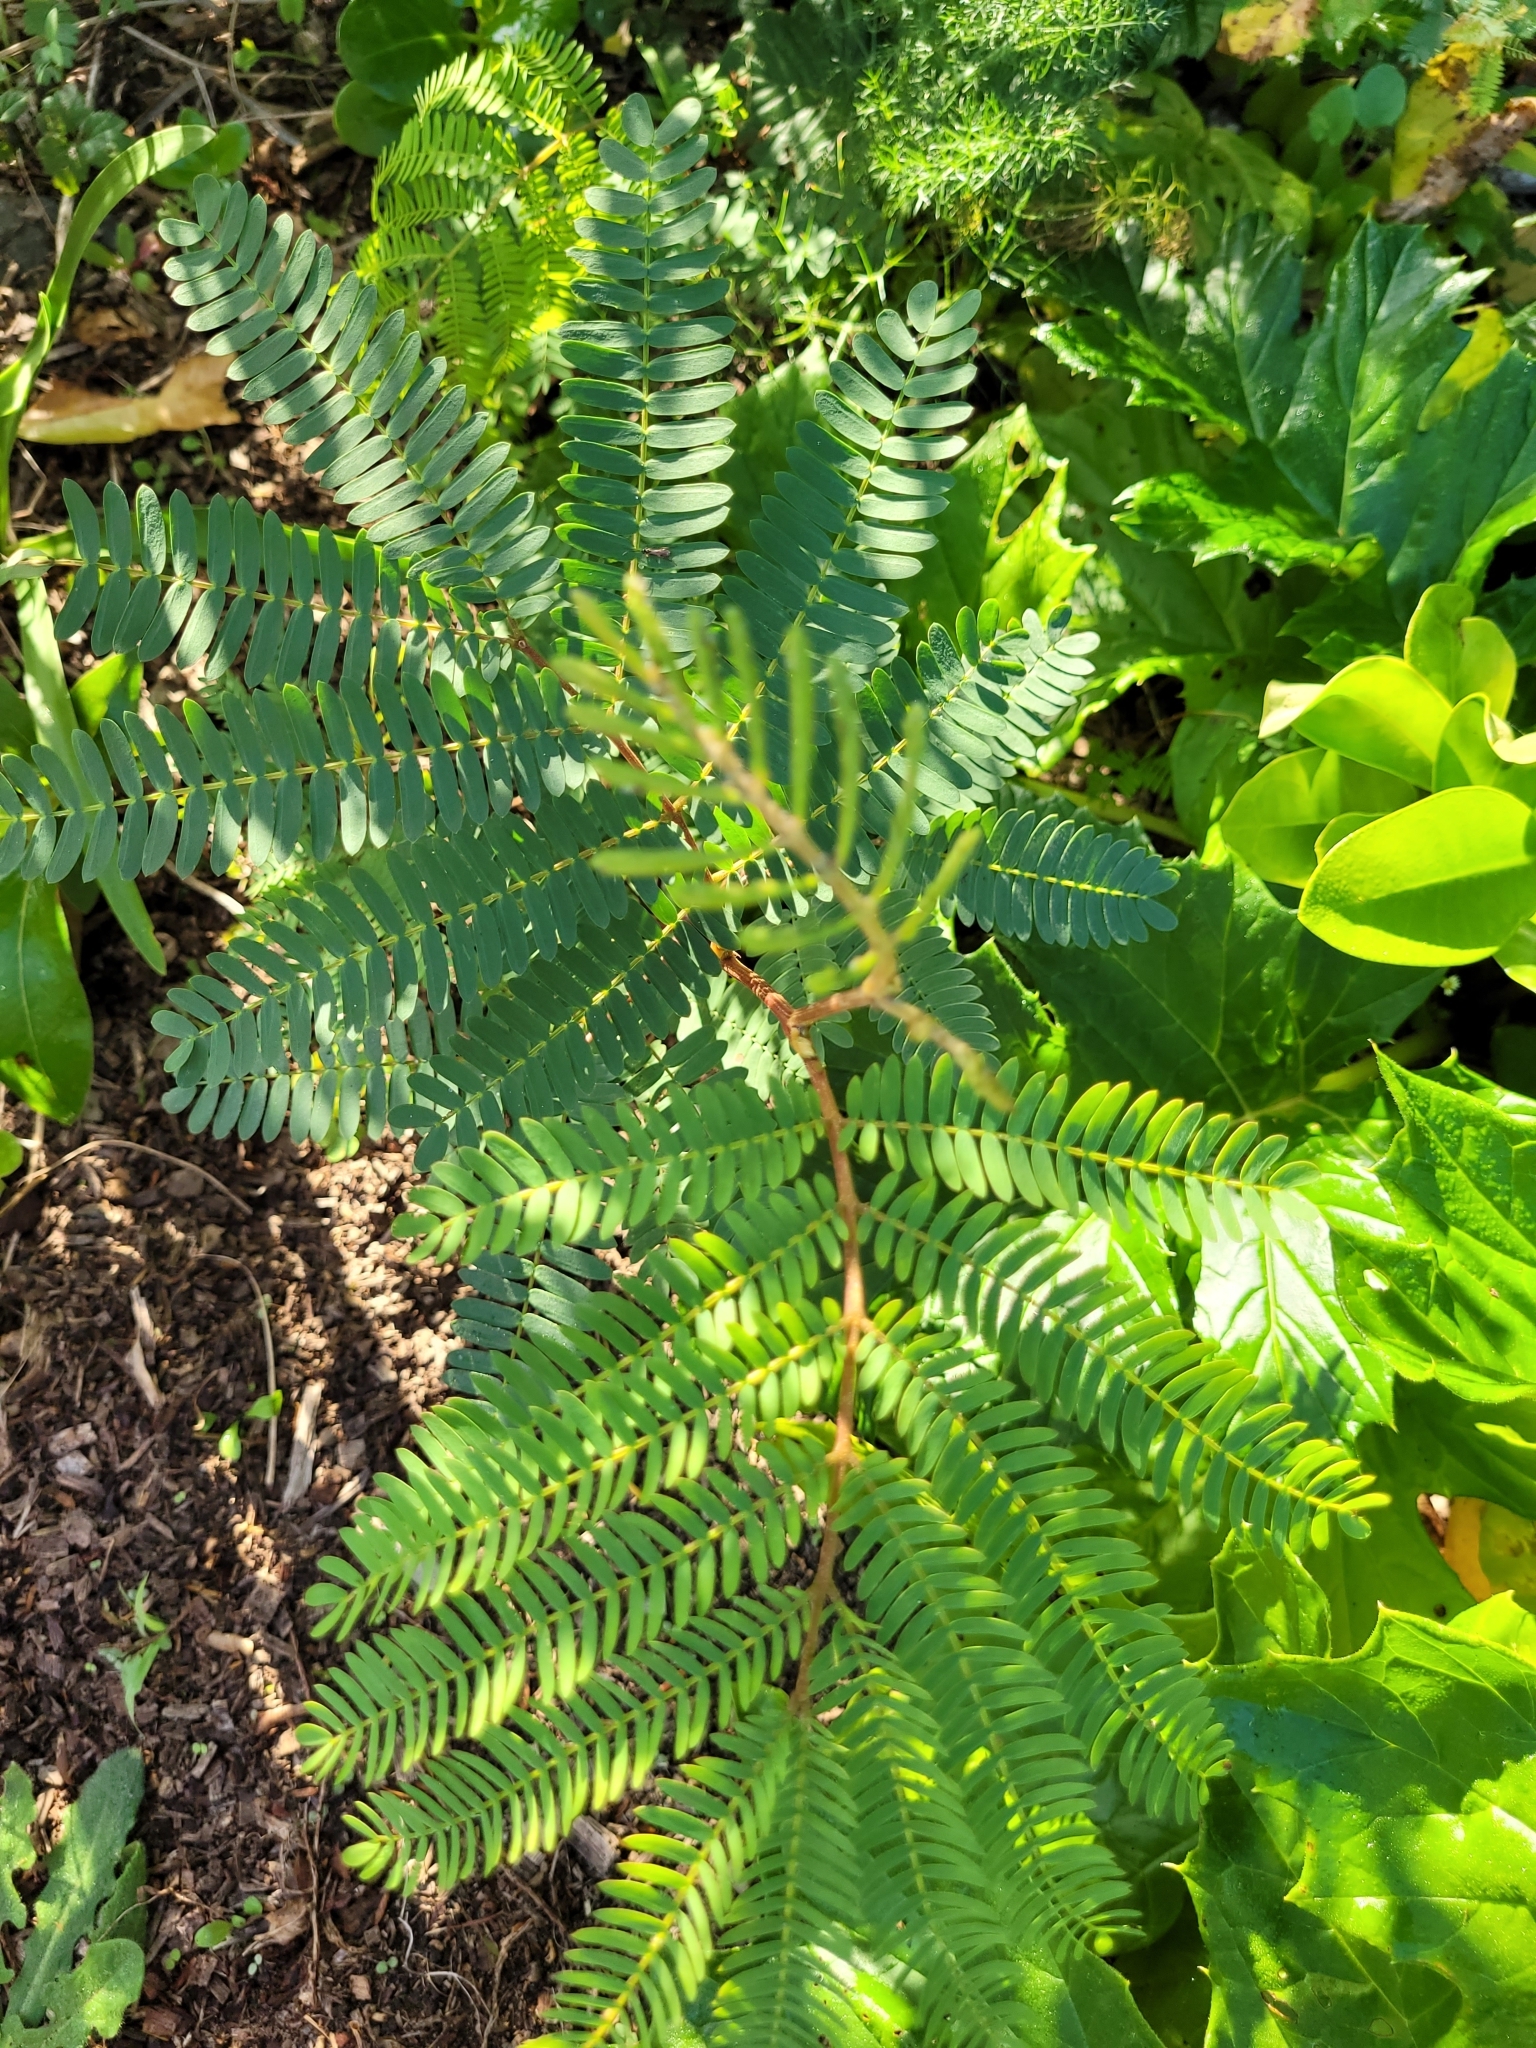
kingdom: Plantae
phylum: Tracheophyta
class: Magnoliopsida
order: Fabales
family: Fabaceae
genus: Paraserianthes
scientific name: Paraserianthes lophantha
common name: Plume albizia
